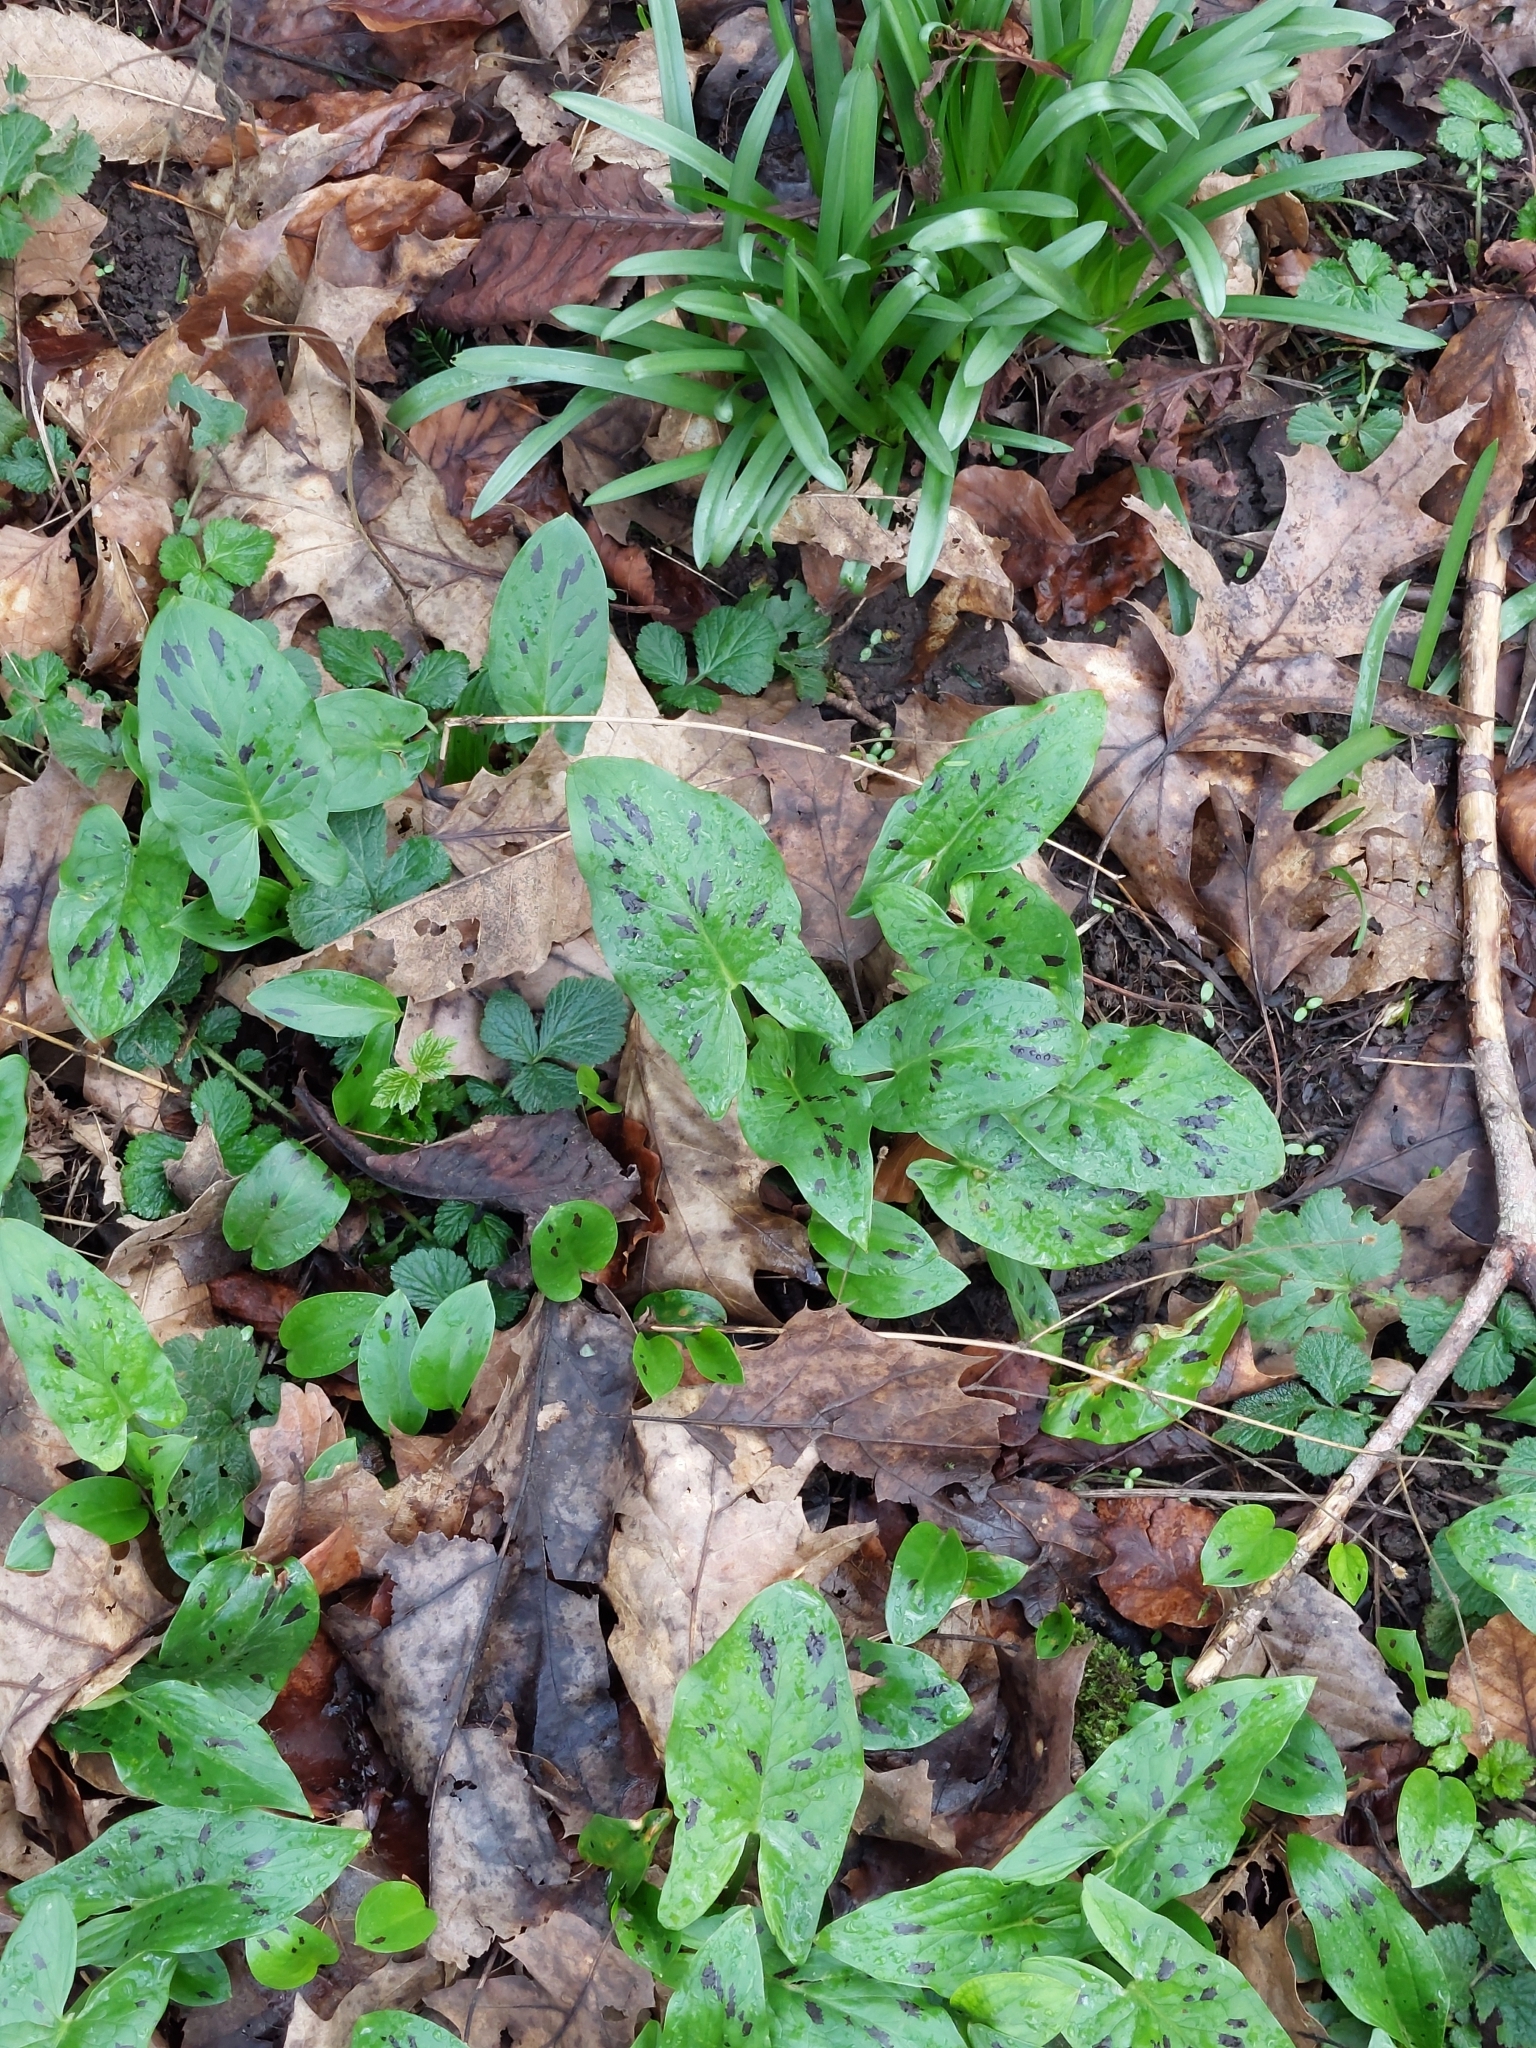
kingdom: Plantae
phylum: Tracheophyta
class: Liliopsida
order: Alismatales
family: Araceae
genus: Arum
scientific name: Arum maculatum
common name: Lords-and-ladies
